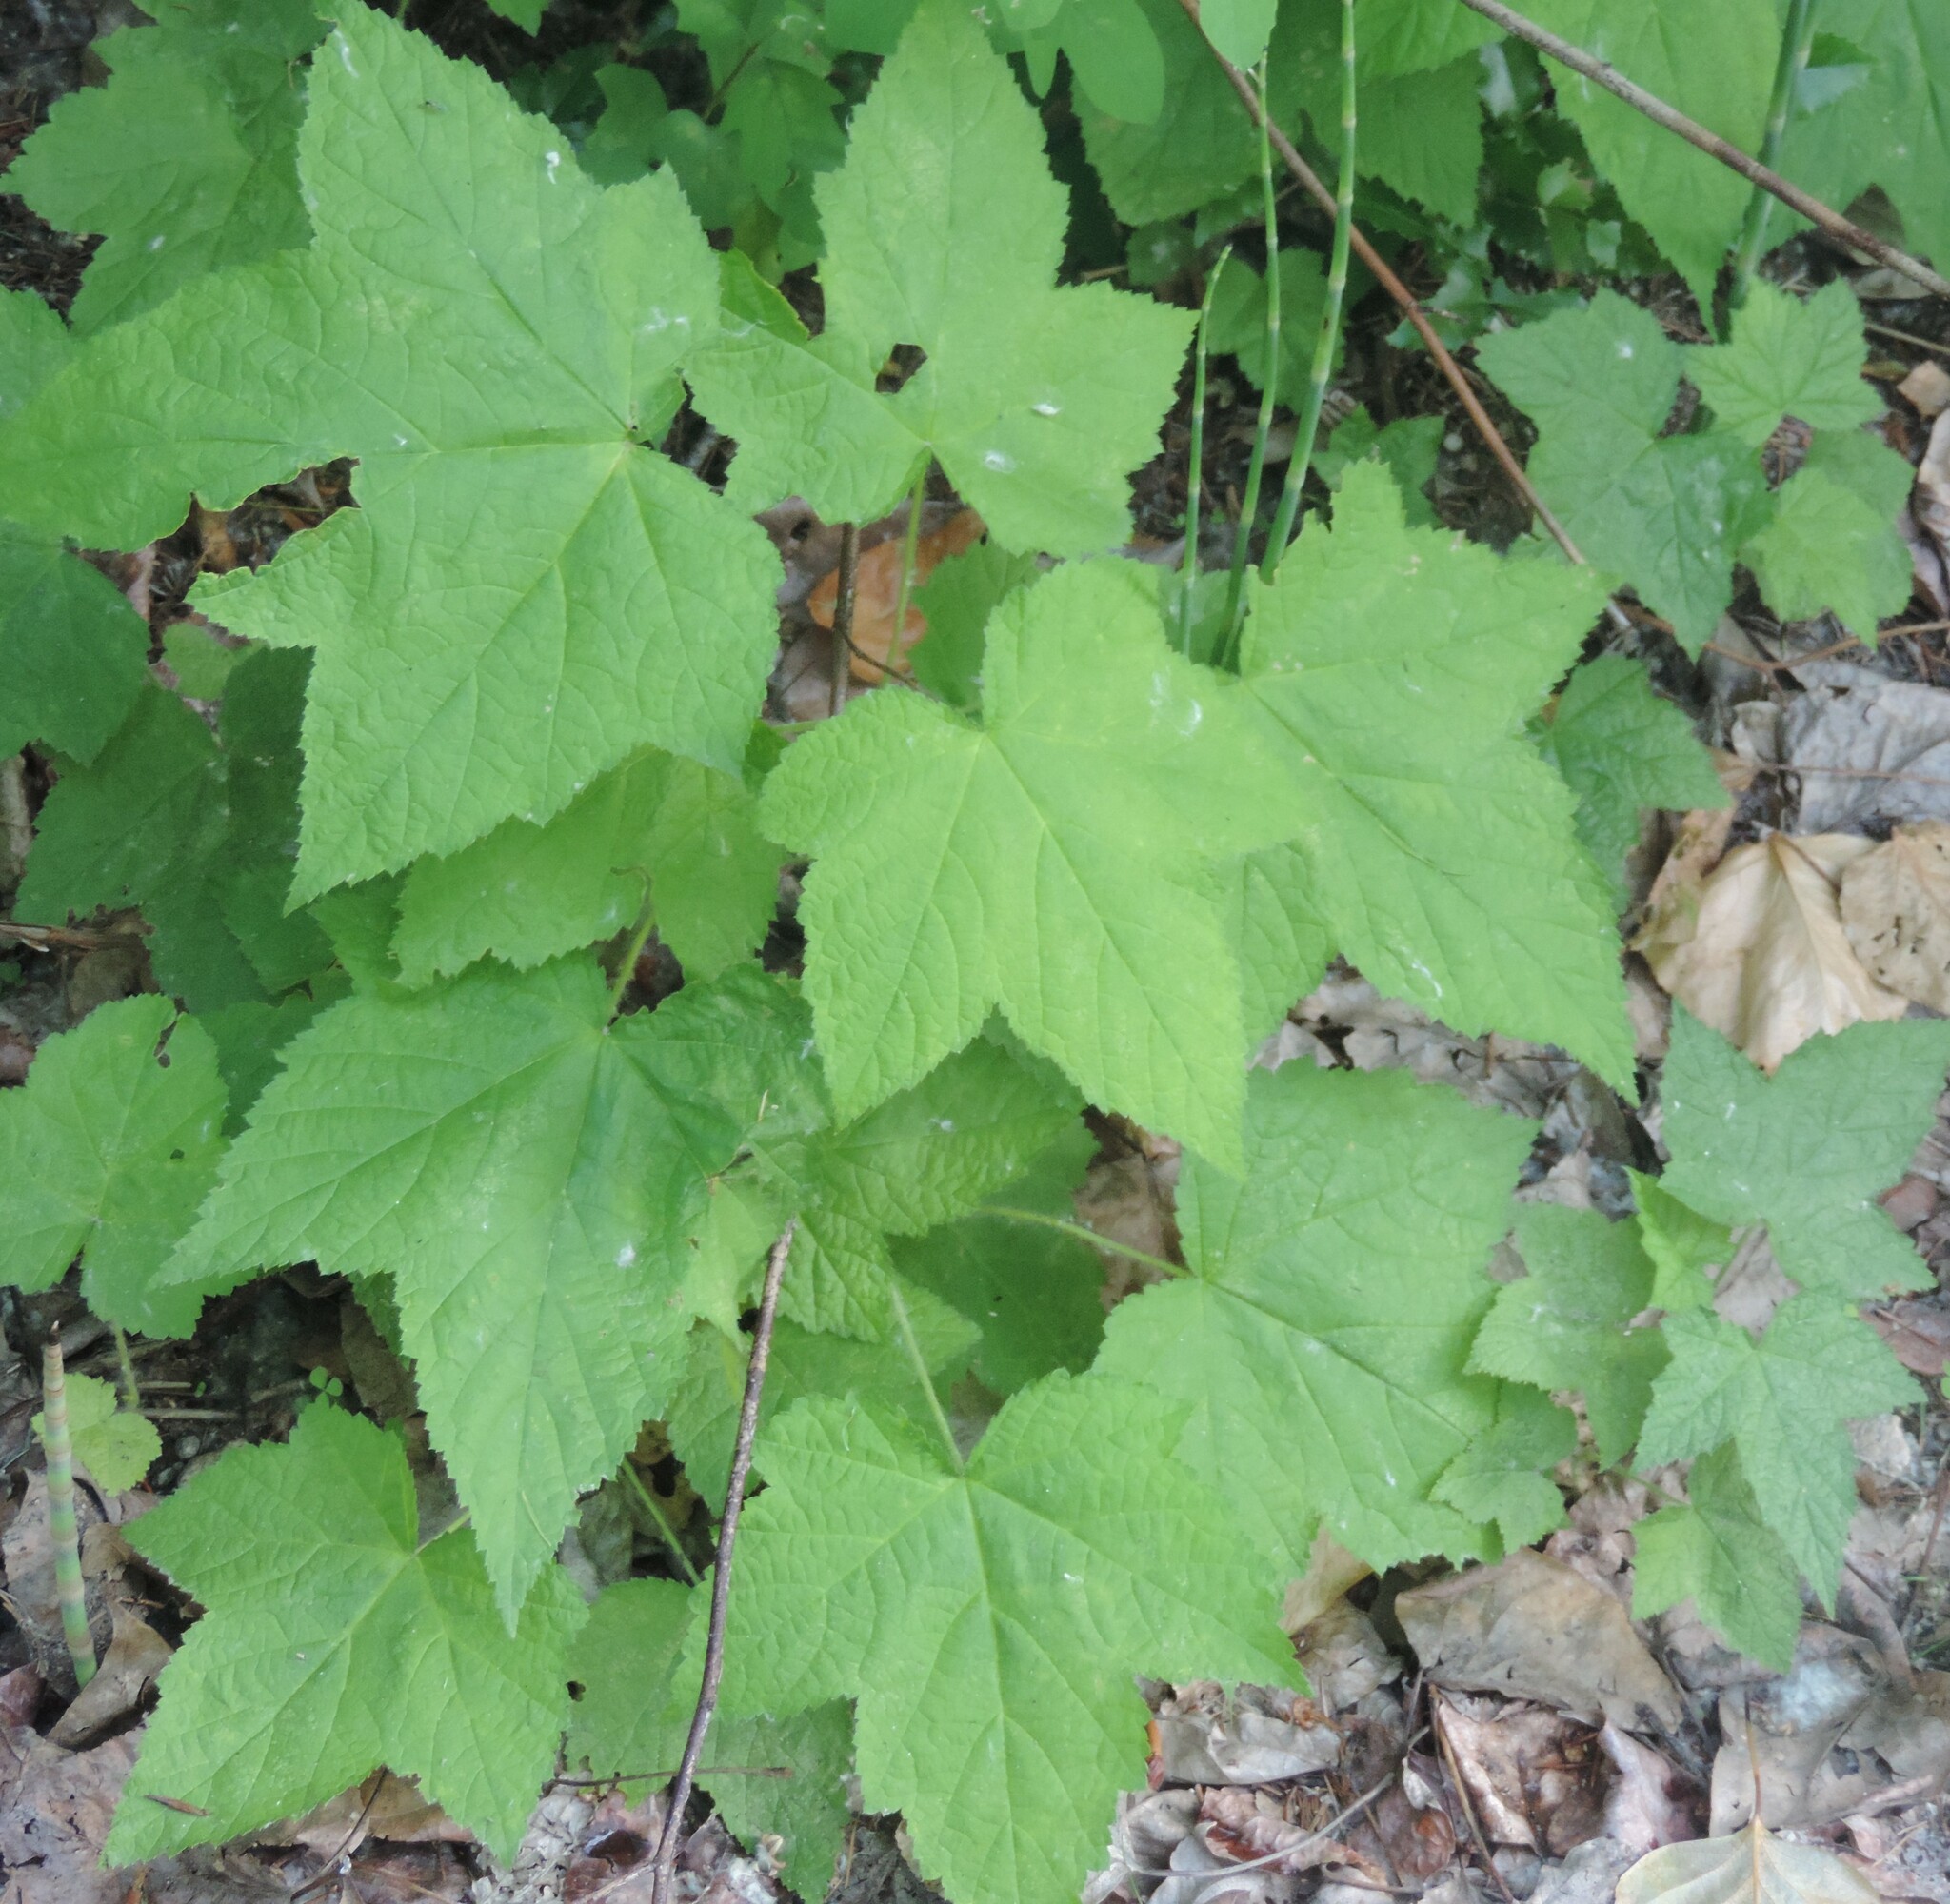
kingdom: Plantae
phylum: Tracheophyta
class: Magnoliopsida
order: Rosales
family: Rosaceae
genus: Rubus
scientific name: Rubus parviflorus
